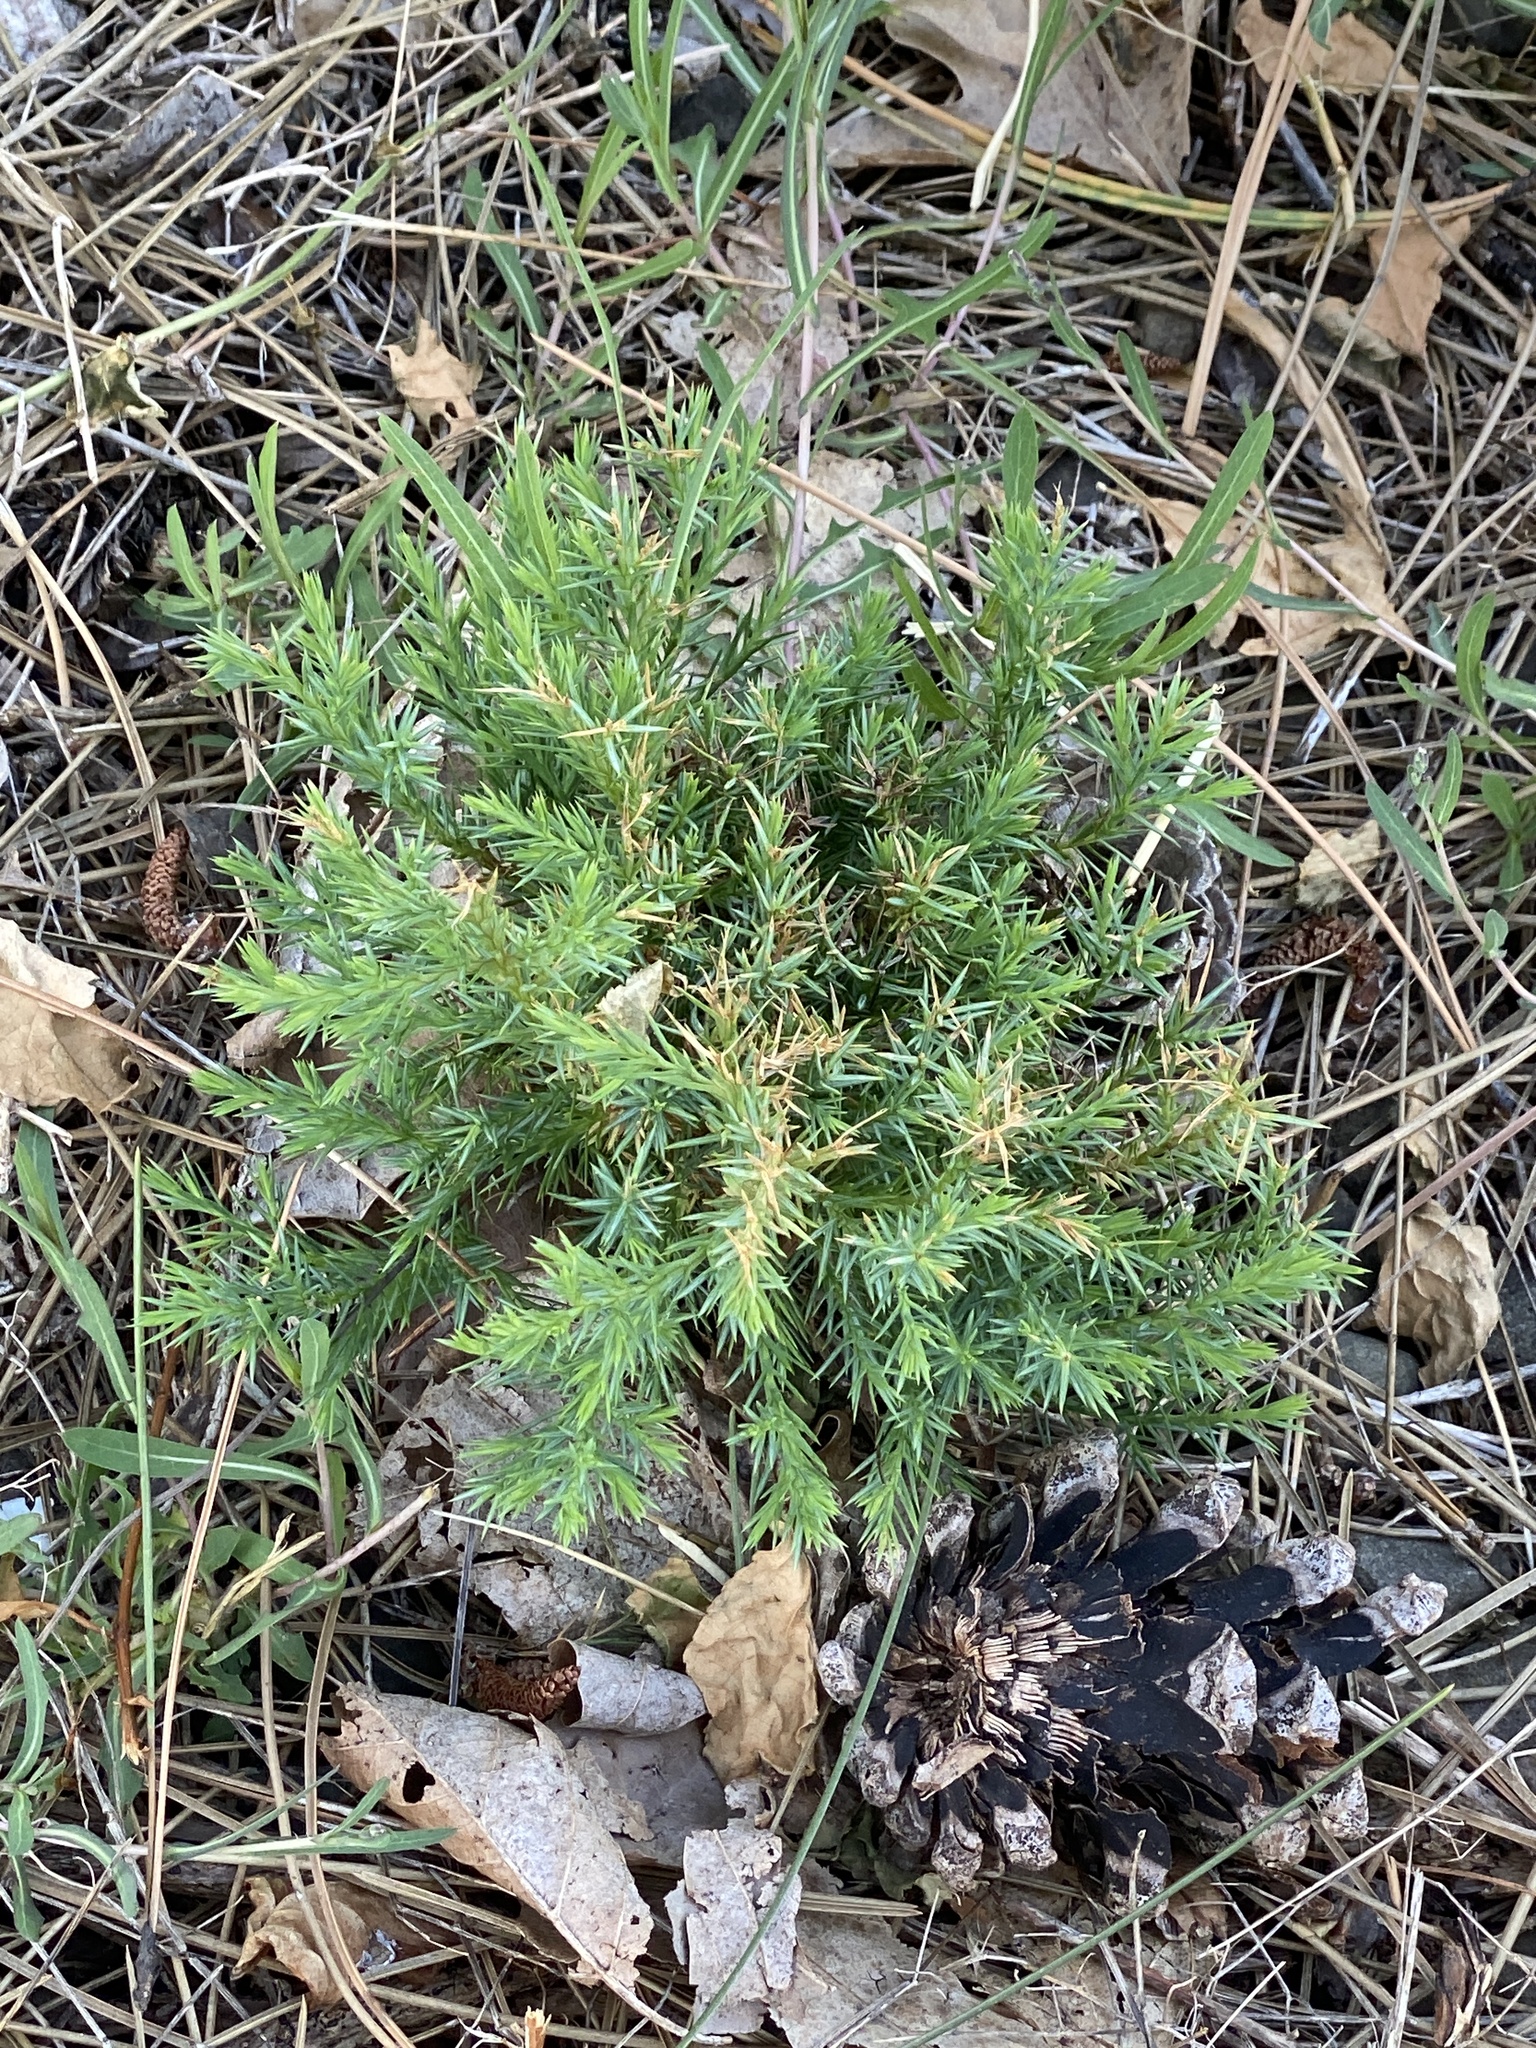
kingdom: Plantae
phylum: Tracheophyta
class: Pinopsida
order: Pinales
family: Cupressaceae
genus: Juniperus
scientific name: Juniperus virginiana
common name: Red juniper
